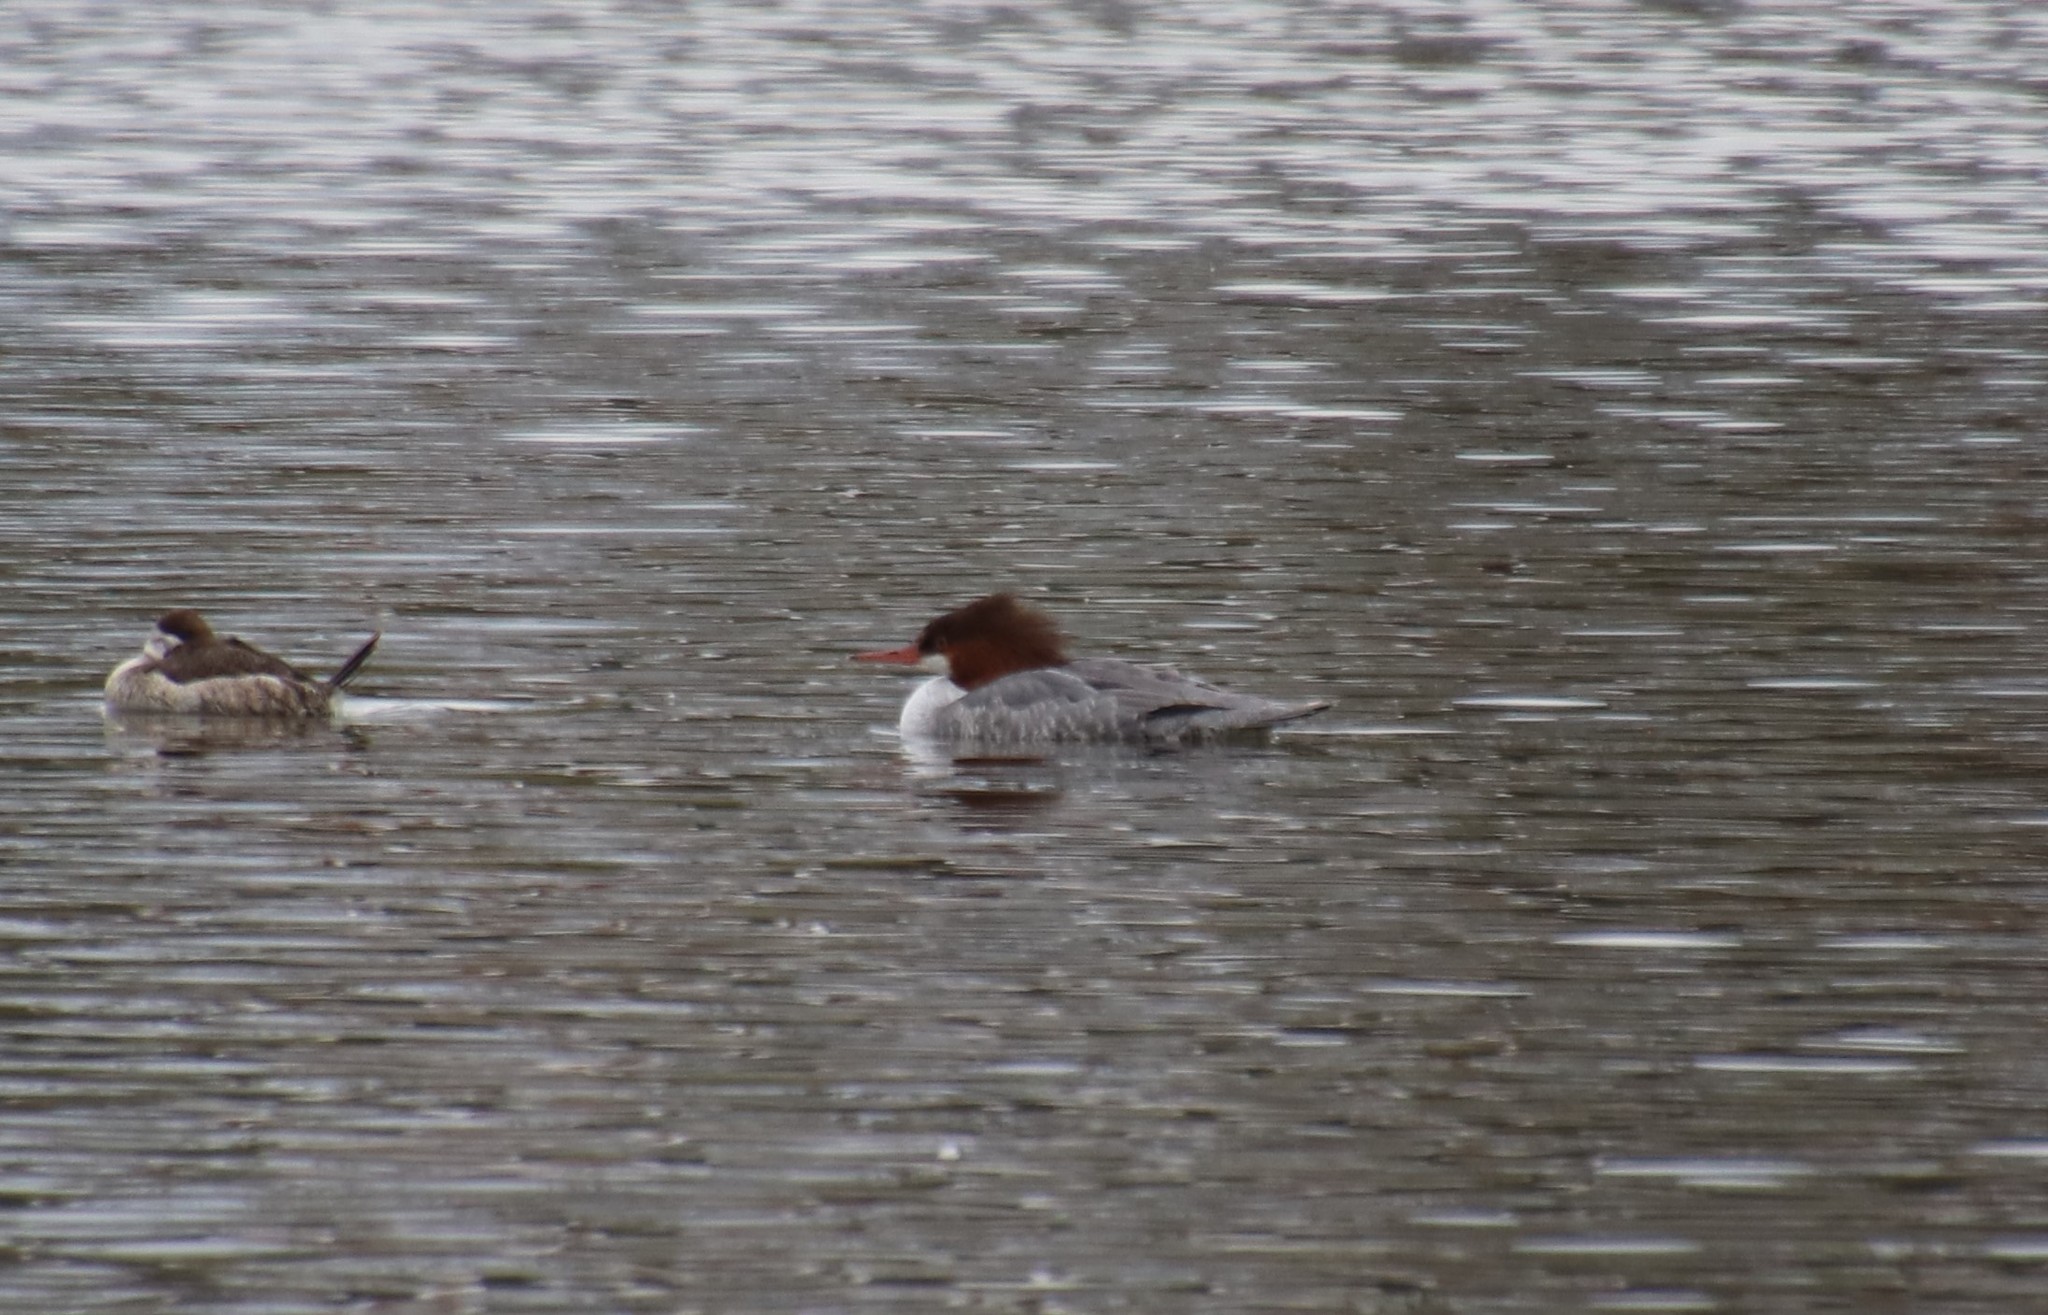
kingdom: Animalia
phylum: Chordata
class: Aves
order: Anseriformes
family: Anatidae
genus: Mergus
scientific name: Mergus merganser
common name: Common merganser
